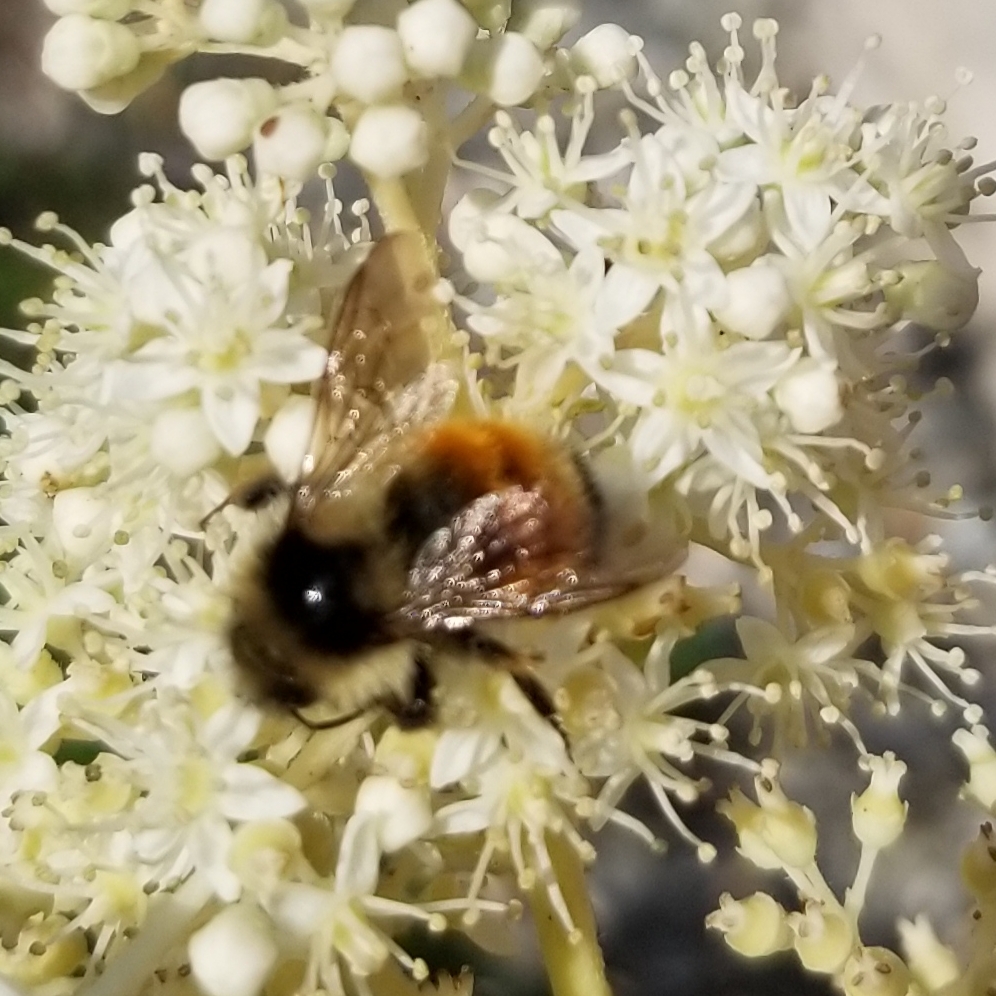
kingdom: Animalia
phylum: Arthropoda
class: Insecta
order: Hymenoptera
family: Apidae
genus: Bombus
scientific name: Bombus ternarius
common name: Tri-colored bumble bee
